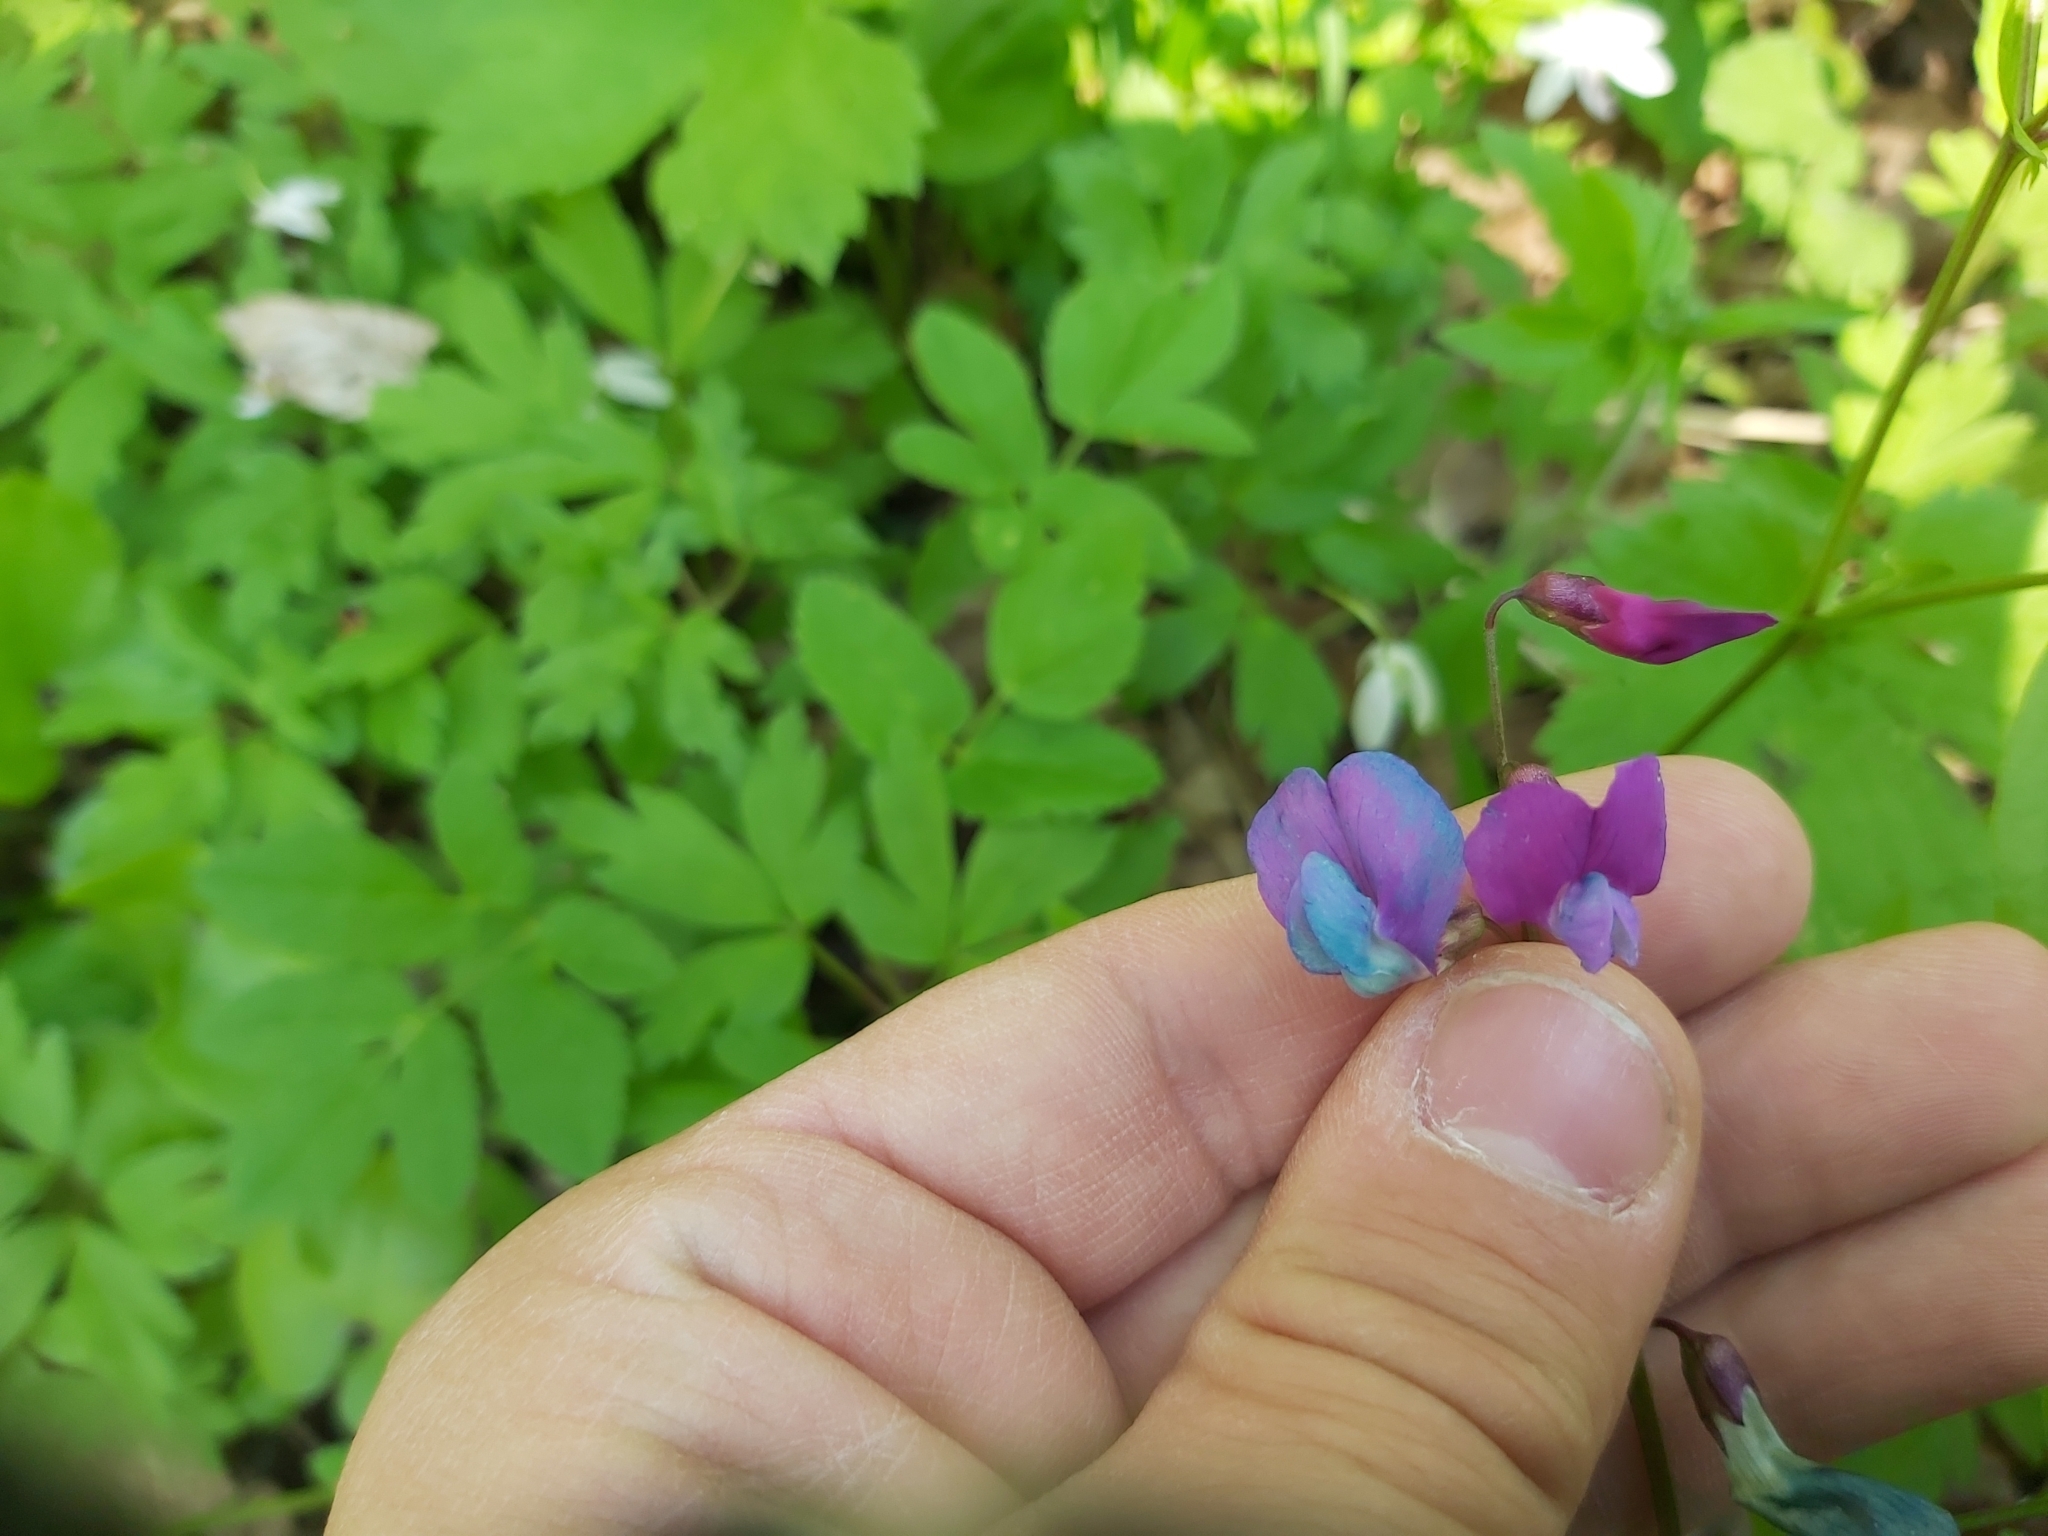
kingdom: Plantae
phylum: Tracheophyta
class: Magnoliopsida
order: Fabales
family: Fabaceae
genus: Lathyrus
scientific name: Lathyrus vernus
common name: Spring pea
